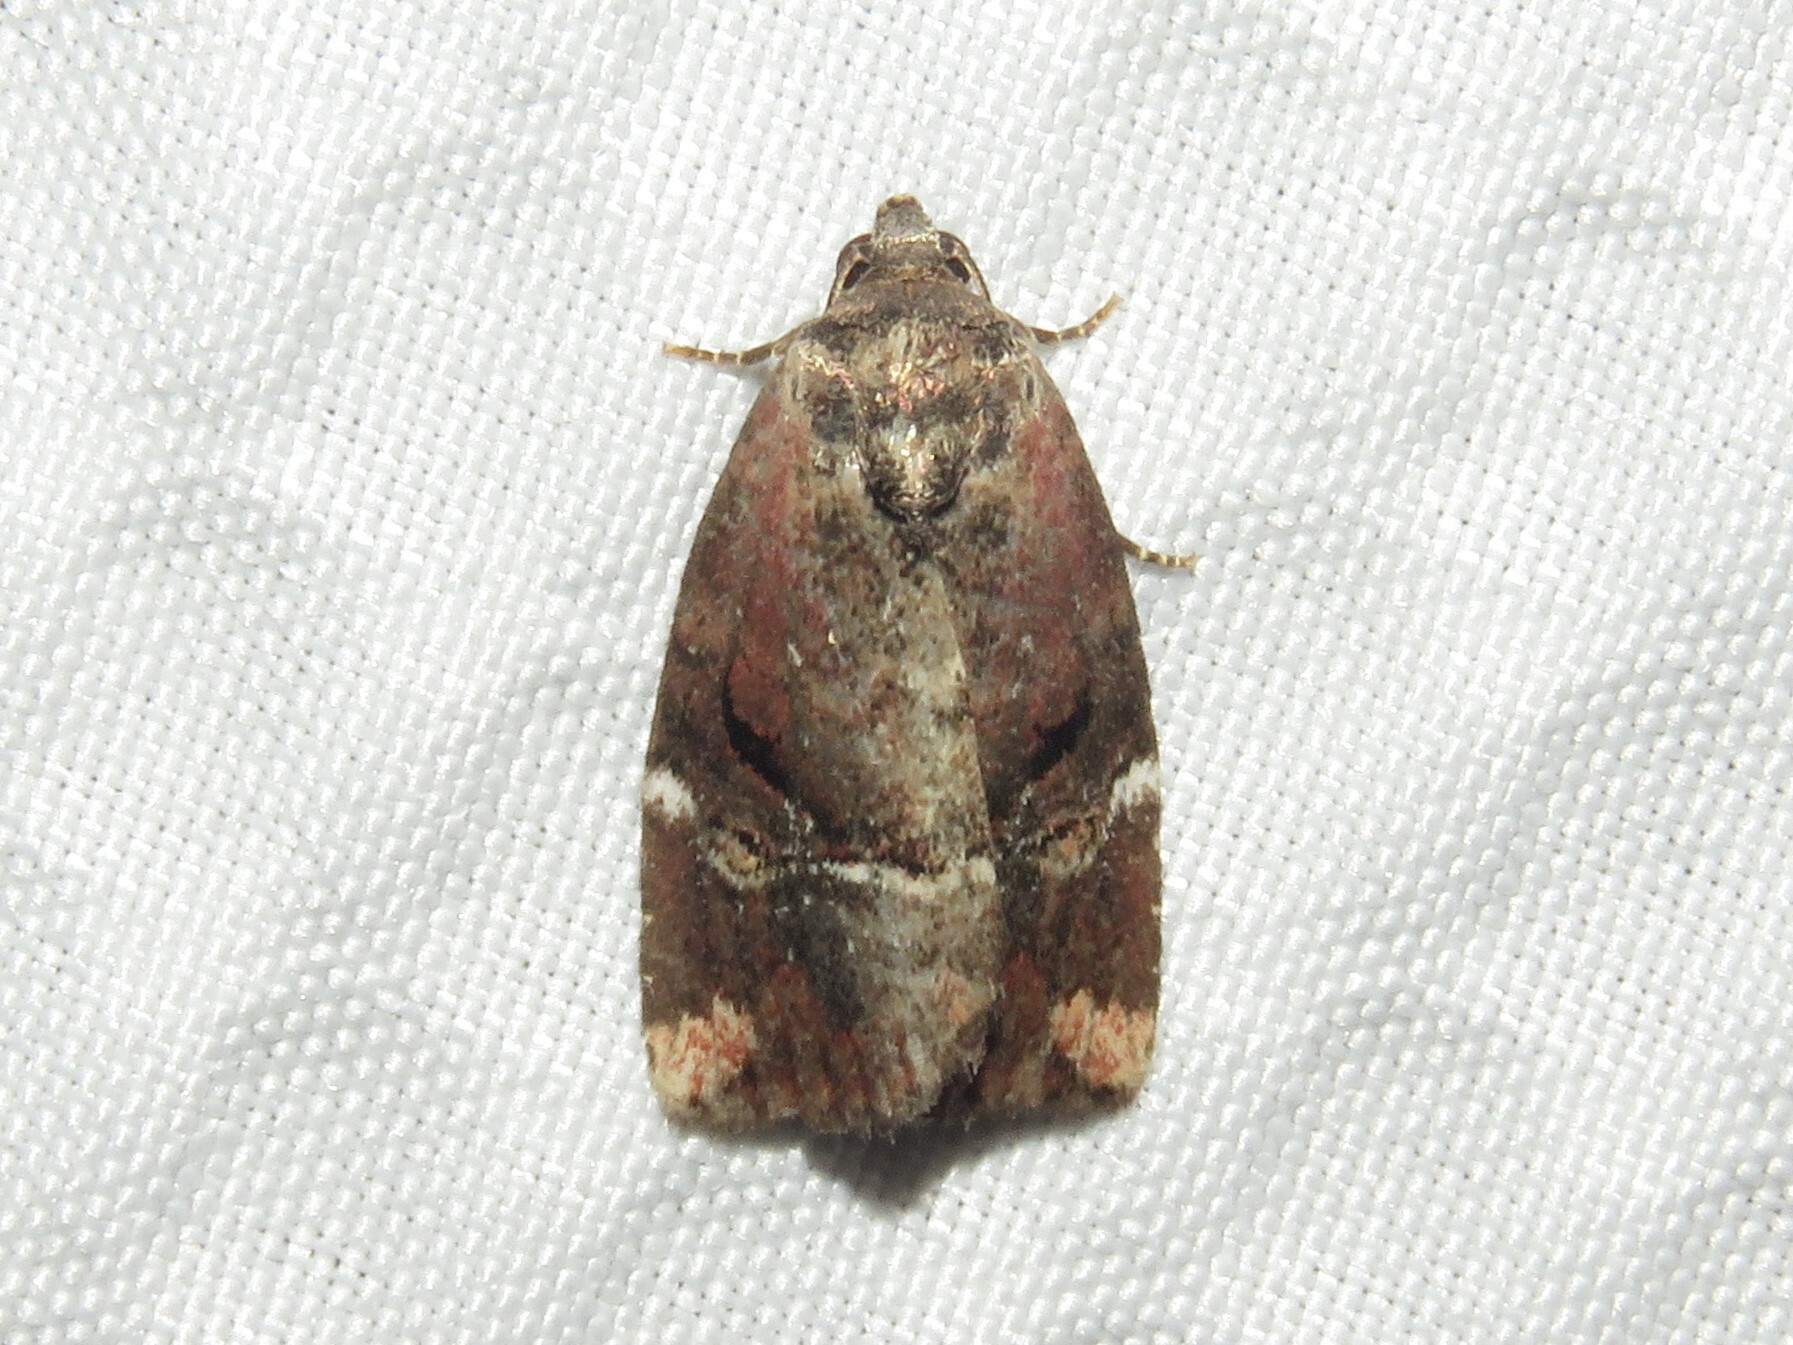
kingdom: Animalia
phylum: Arthropoda
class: Insecta
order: Lepidoptera
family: Noctuidae
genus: Elaphria
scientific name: Elaphria versicolor
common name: Fir harlequin
